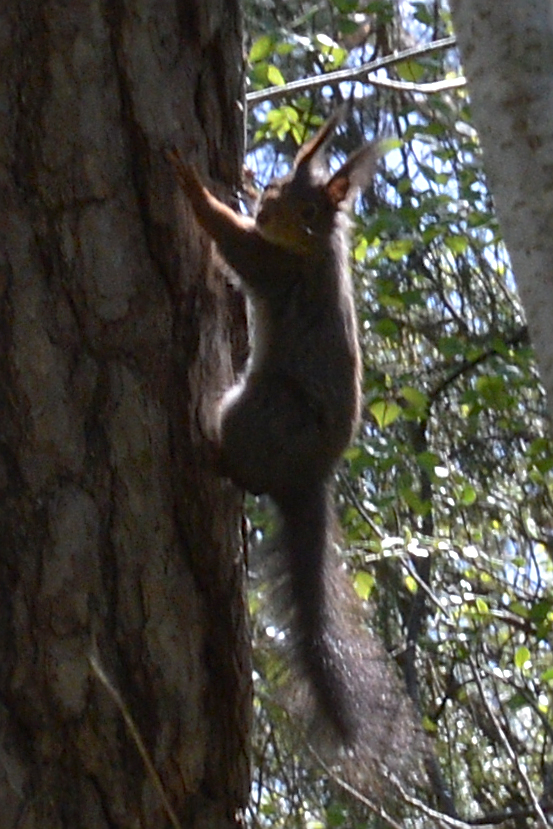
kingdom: Animalia
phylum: Chordata
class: Mammalia
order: Rodentia
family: Sciuridae
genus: Sciurus
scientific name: Sciurus vulgaris
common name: Eurasian red squirrel
